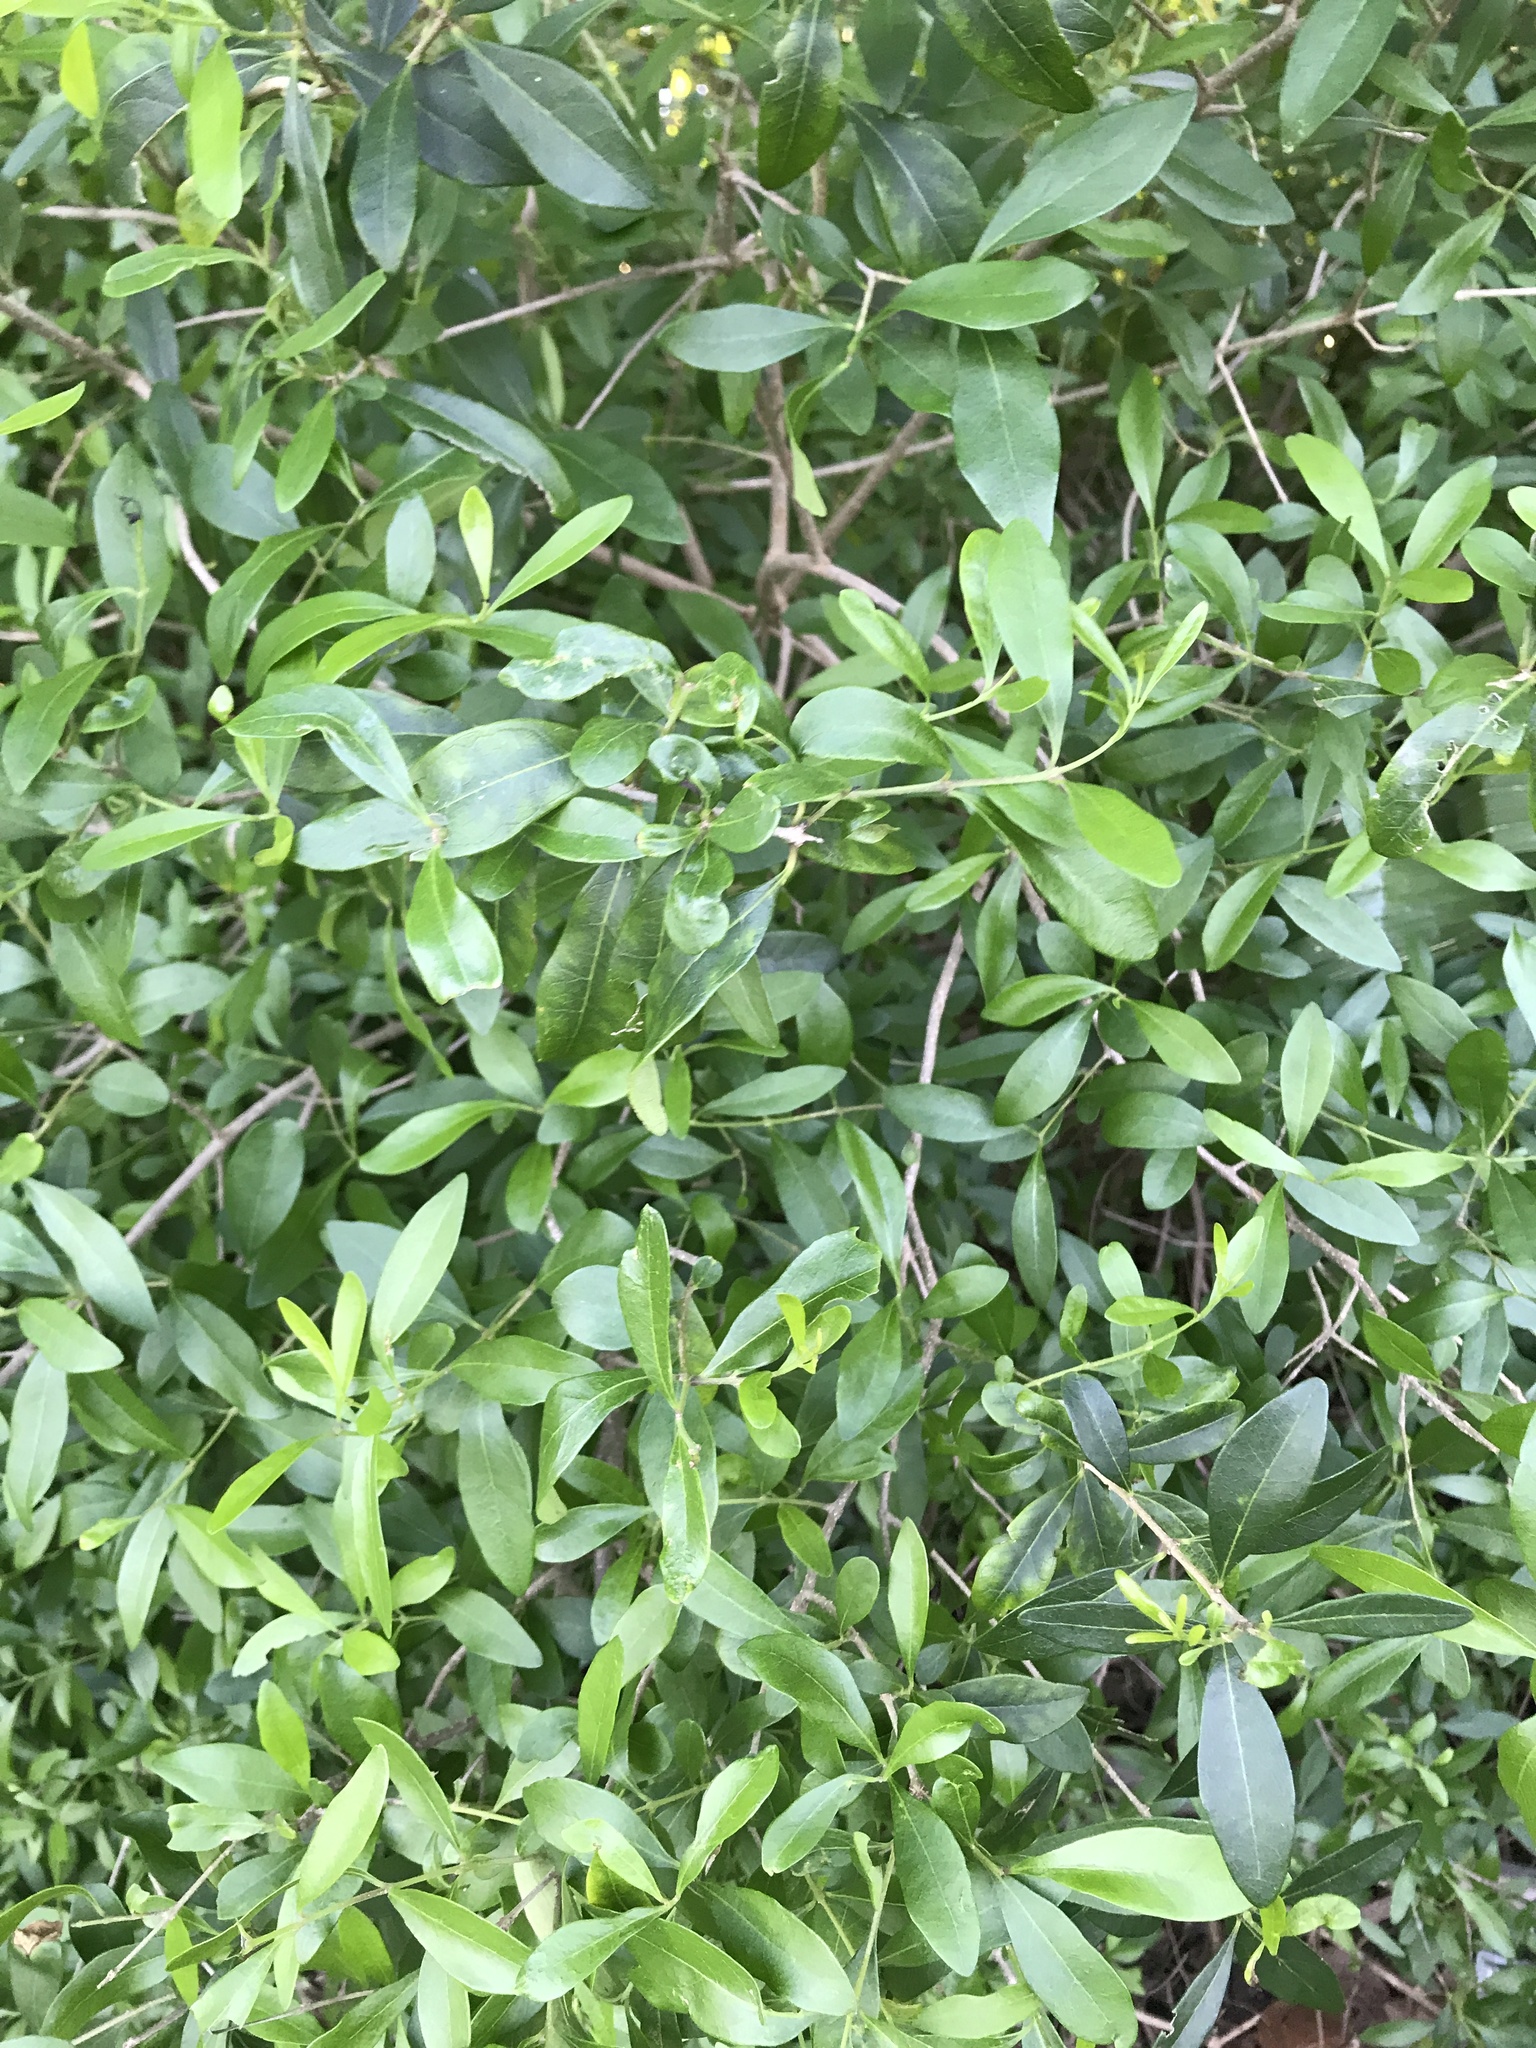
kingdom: Plantae
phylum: Tracheophyta
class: Magnoliopsida
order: Lamiales
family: Oleaceae
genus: Forestiera
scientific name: Forestiera segregata
